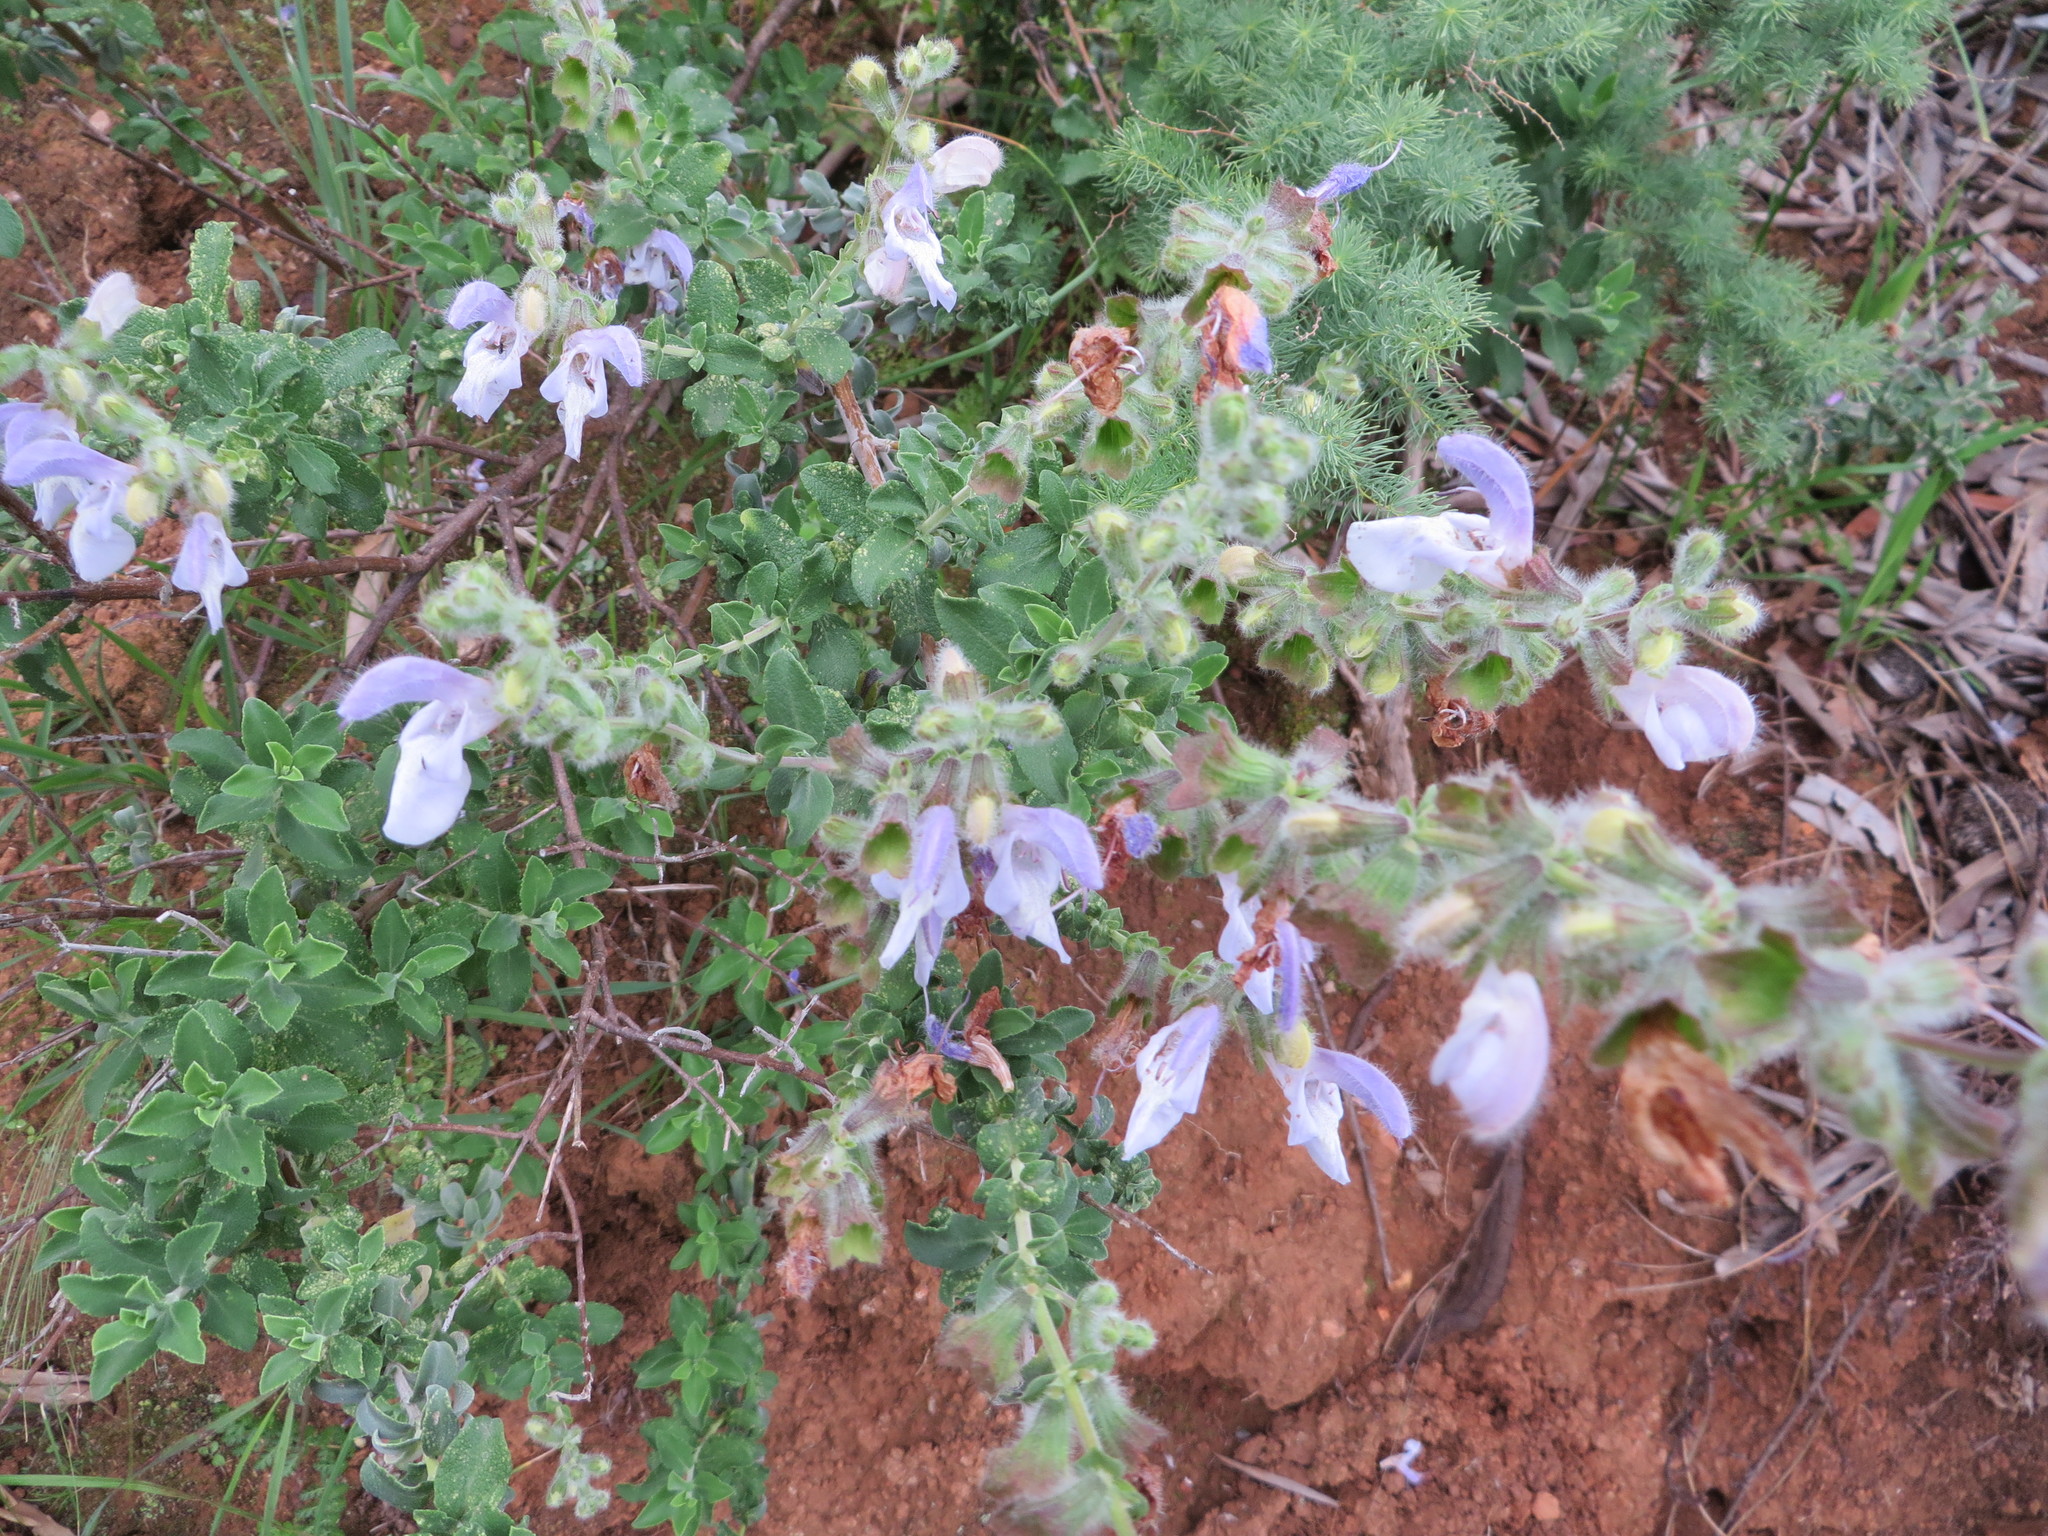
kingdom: Plantae
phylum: Tracheophyta
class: Magnoliopsida
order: Lamiales
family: Lamiaceae
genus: Salvia
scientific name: Salvia africana
